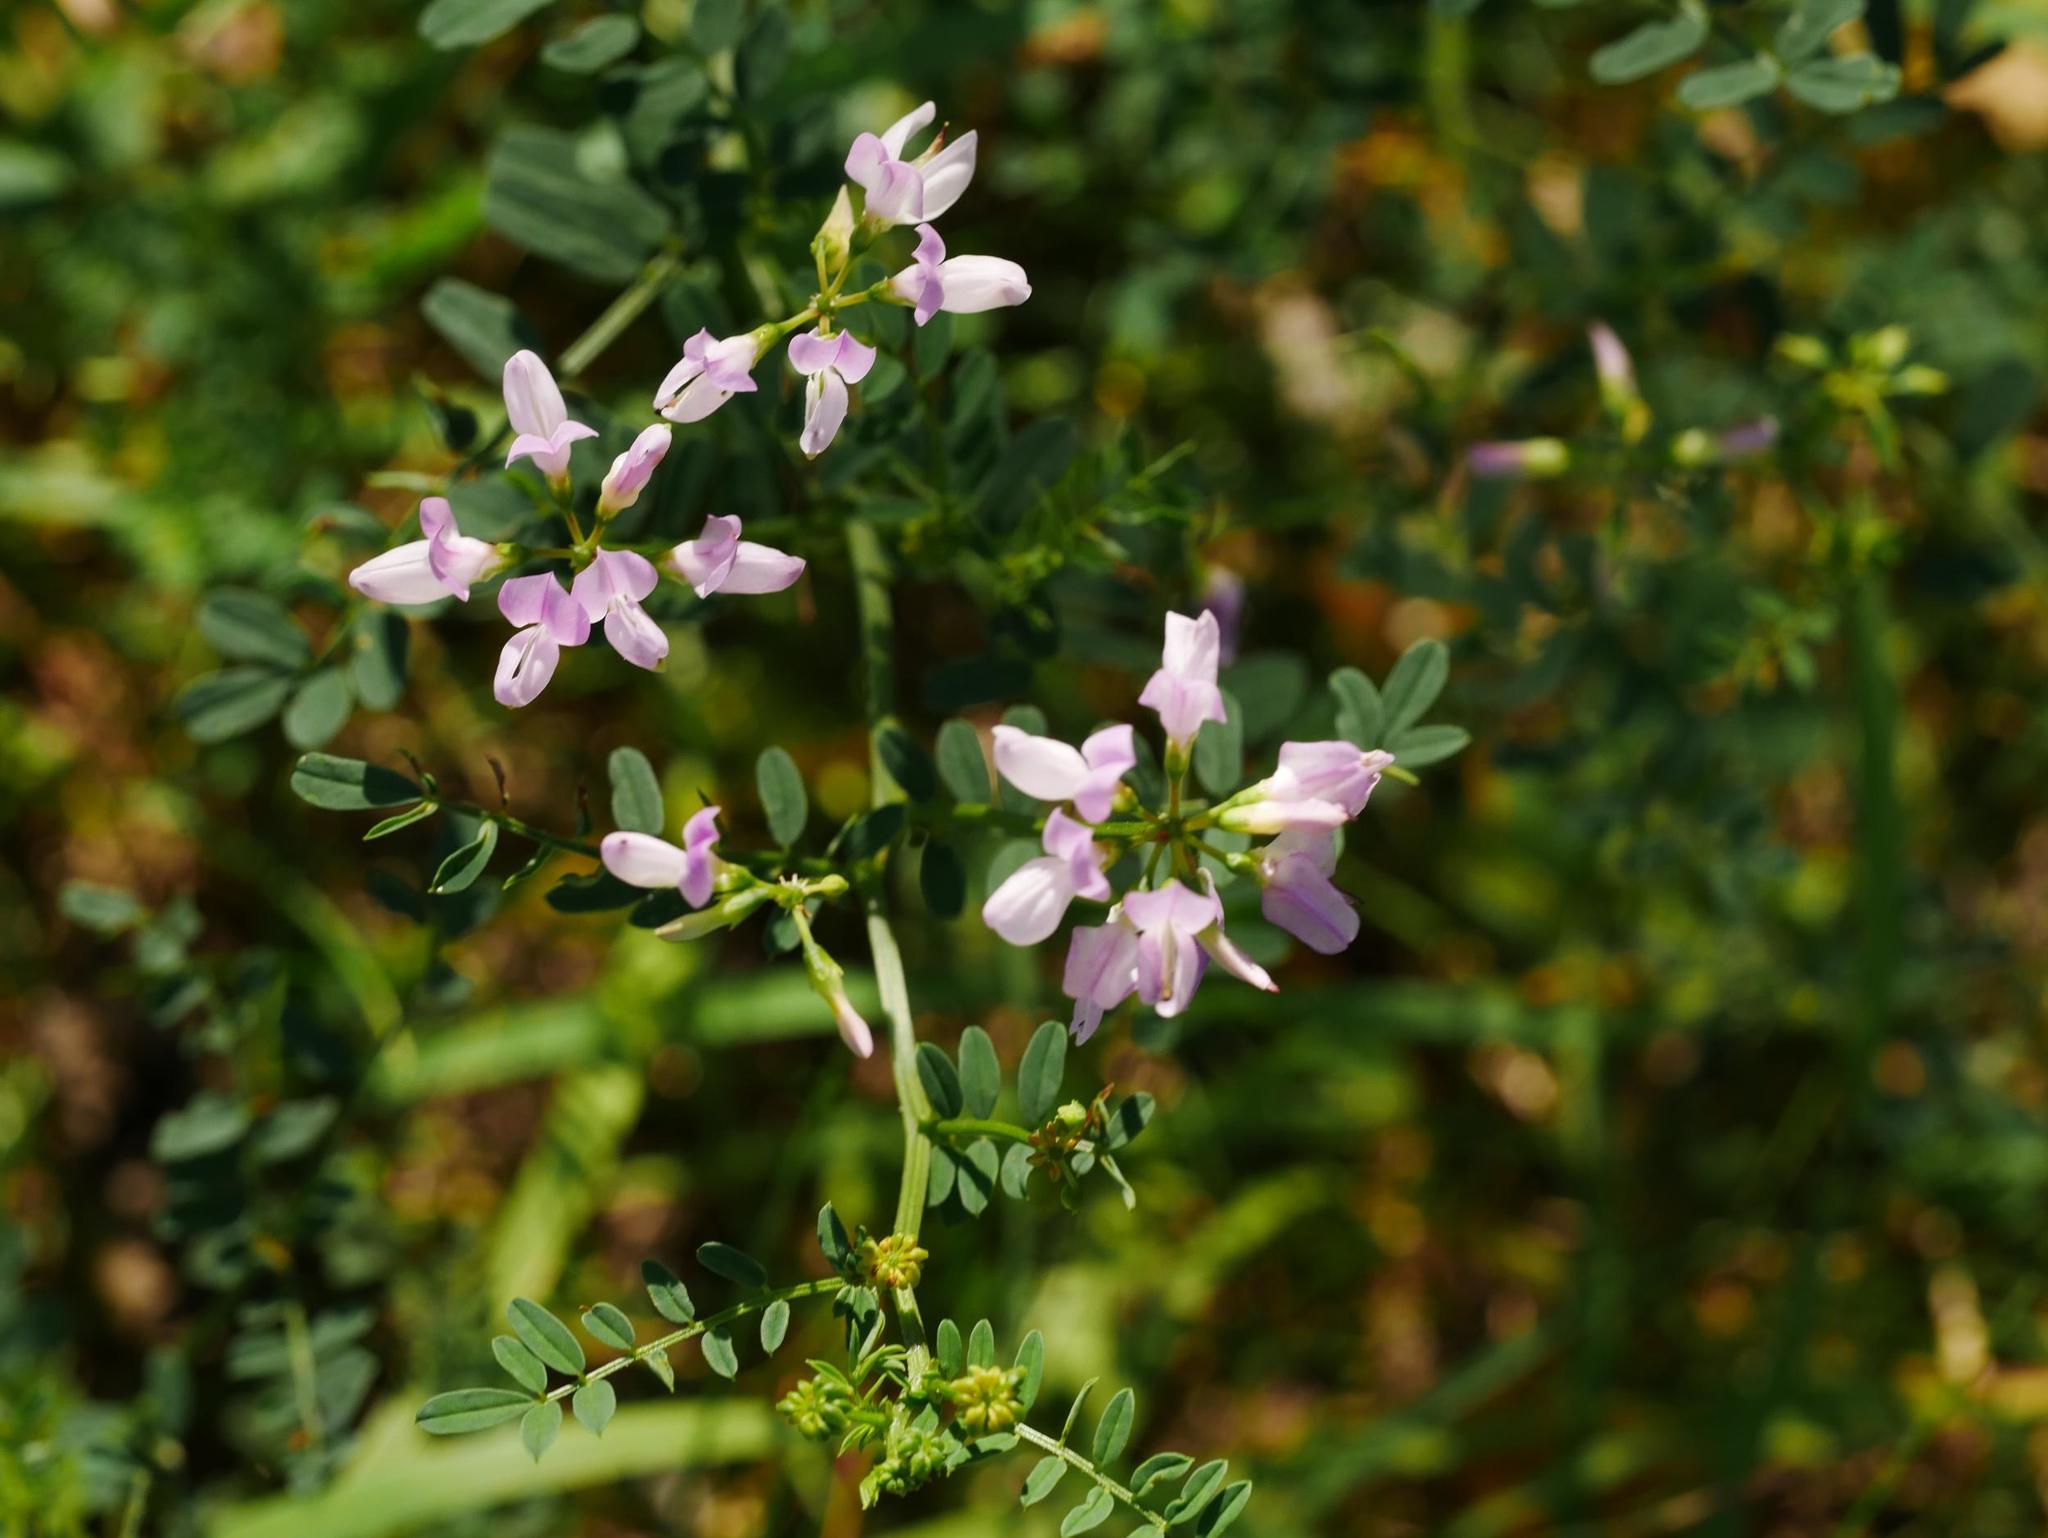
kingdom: Plantae
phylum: Tracheophyta
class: Magnoliopsida
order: Fabales
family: Fabaceae
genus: Coronilla
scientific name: Coronilla varia
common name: Crownvetch
